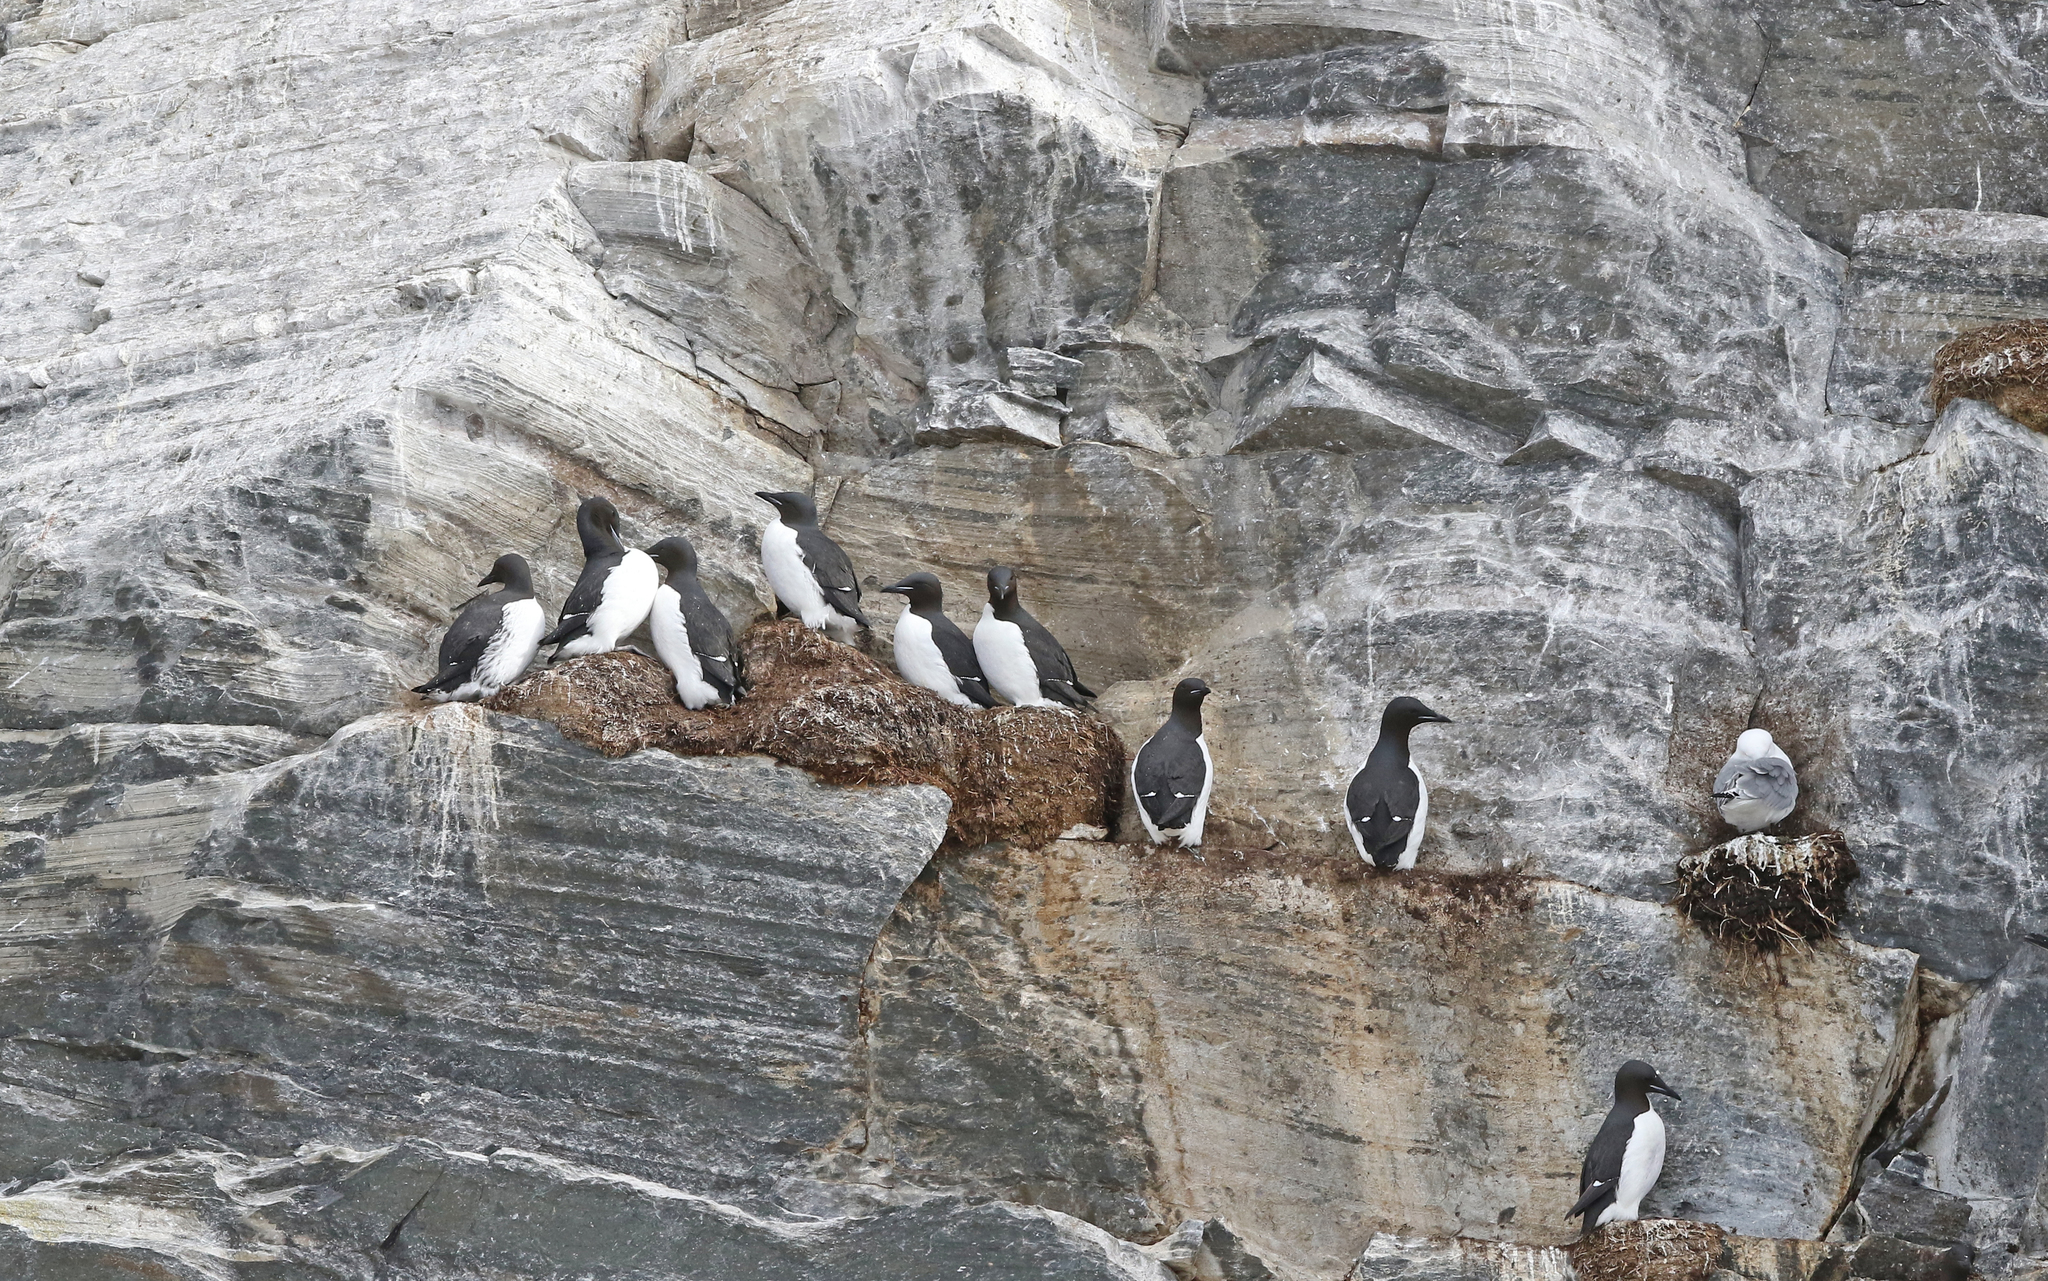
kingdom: Animalia
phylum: Chordata
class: Aves
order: Charadriiformes
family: Alcidae
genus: Uria
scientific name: Uria lomvia
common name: Thick-billed murre
